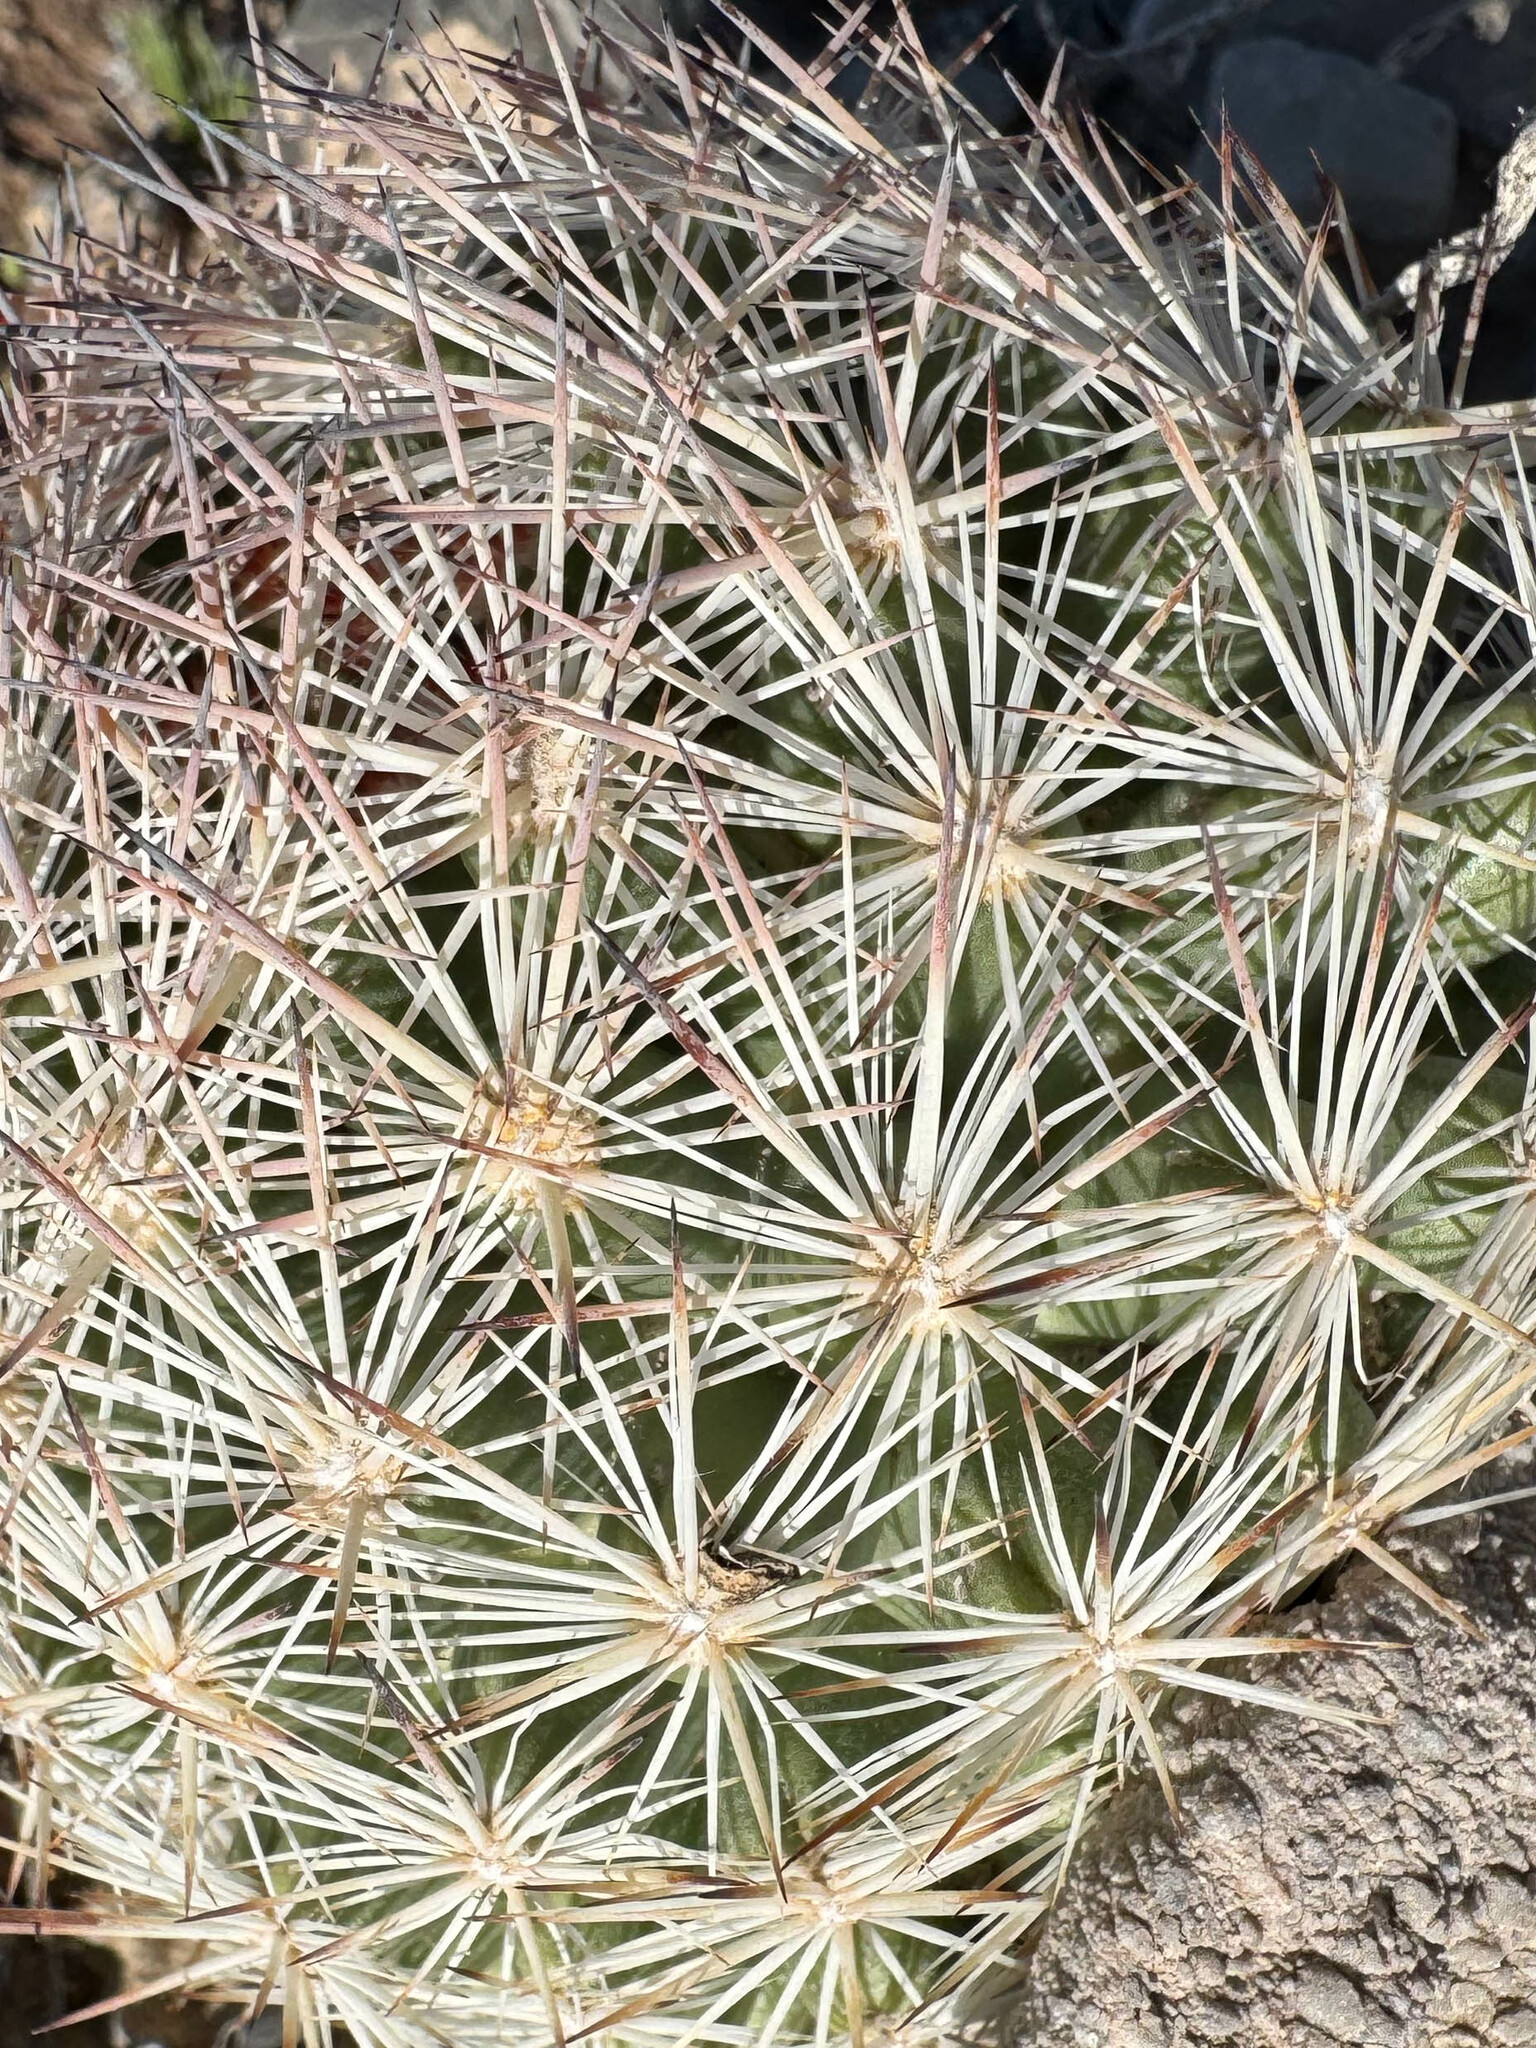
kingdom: Plantae
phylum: Tracheophyta
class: Magnoliopsida
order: Caryophyllales
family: Cactaceae
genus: Pelecyphora
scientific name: Pelecyphora dasyacantha
